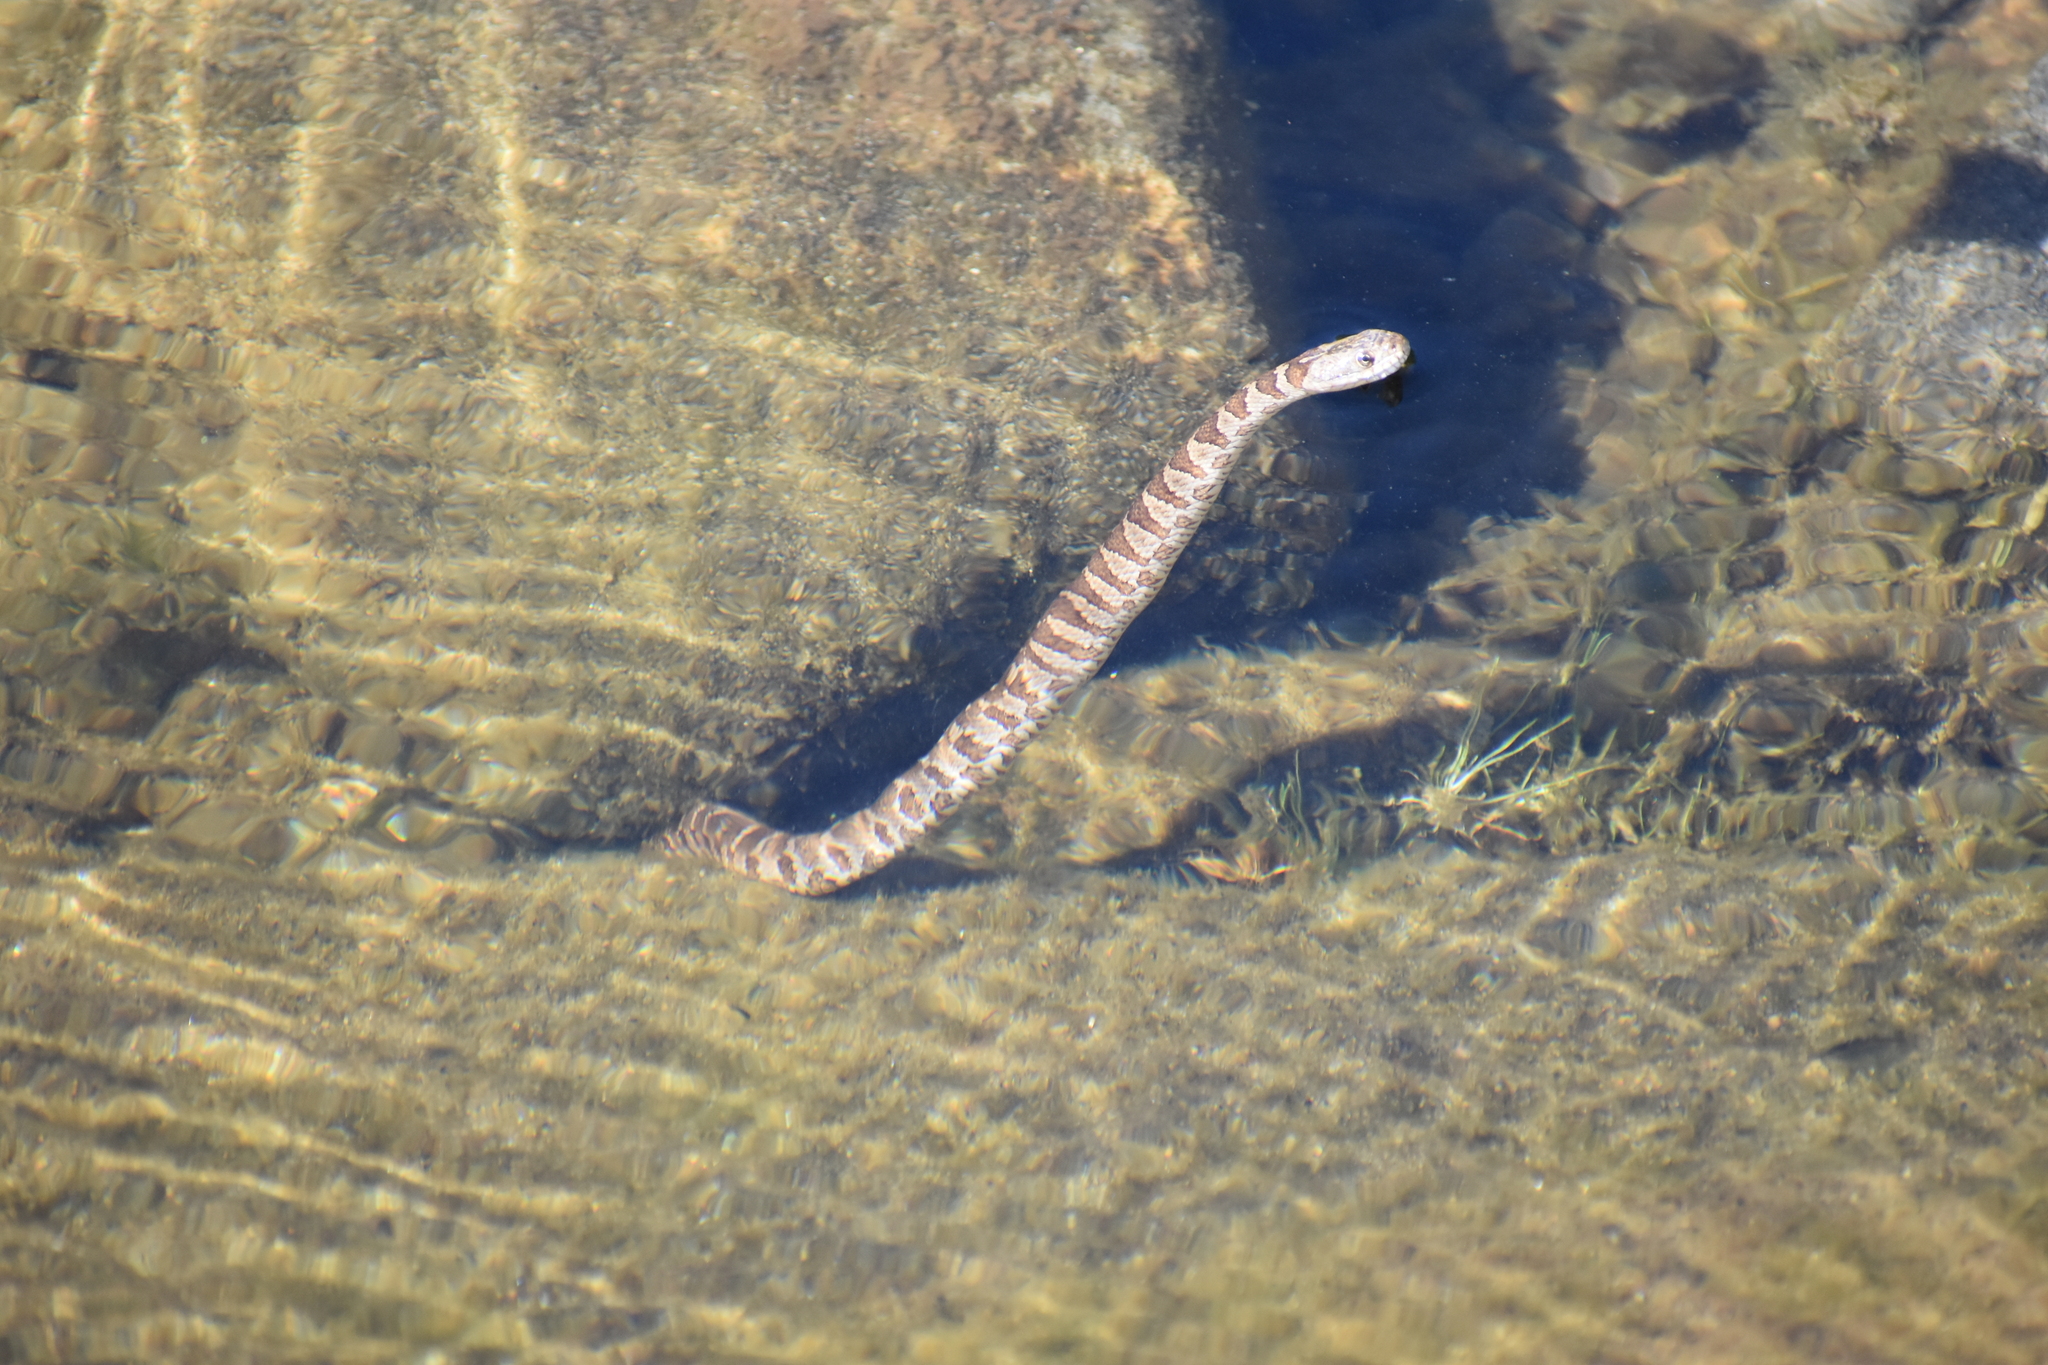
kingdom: Animalia
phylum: Chordata
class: Squamata
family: Colubridae
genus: Nerodia
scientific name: Nerodia sipedon
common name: Northern water snake
